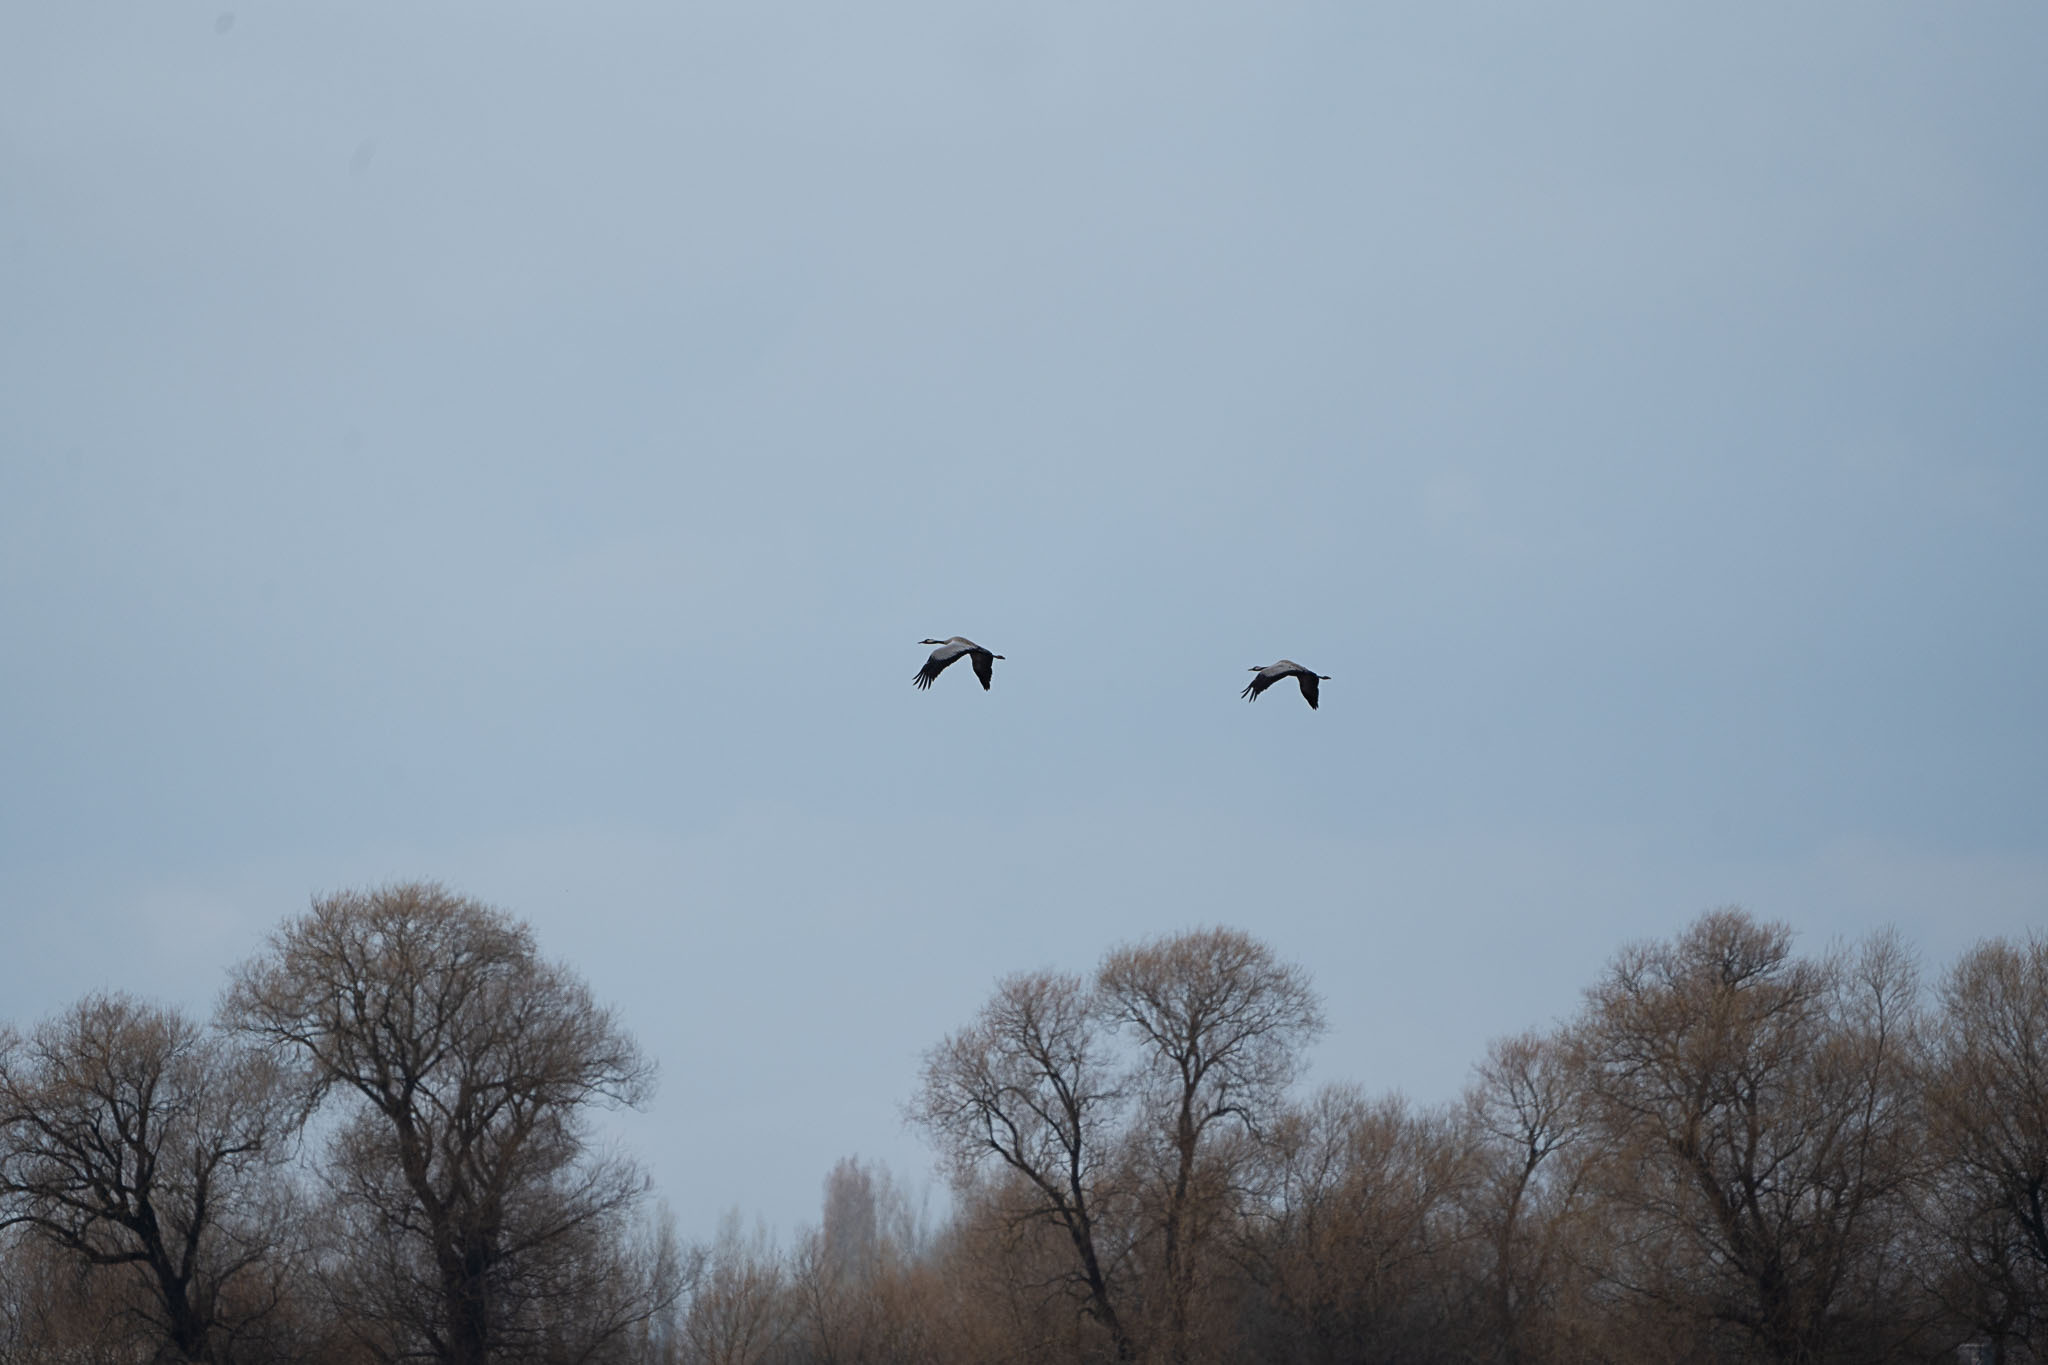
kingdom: Animalia
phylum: Chordata
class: Aves
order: Gruiformes
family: Gruidae
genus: Grus
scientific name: Grus grus
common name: Common crane
